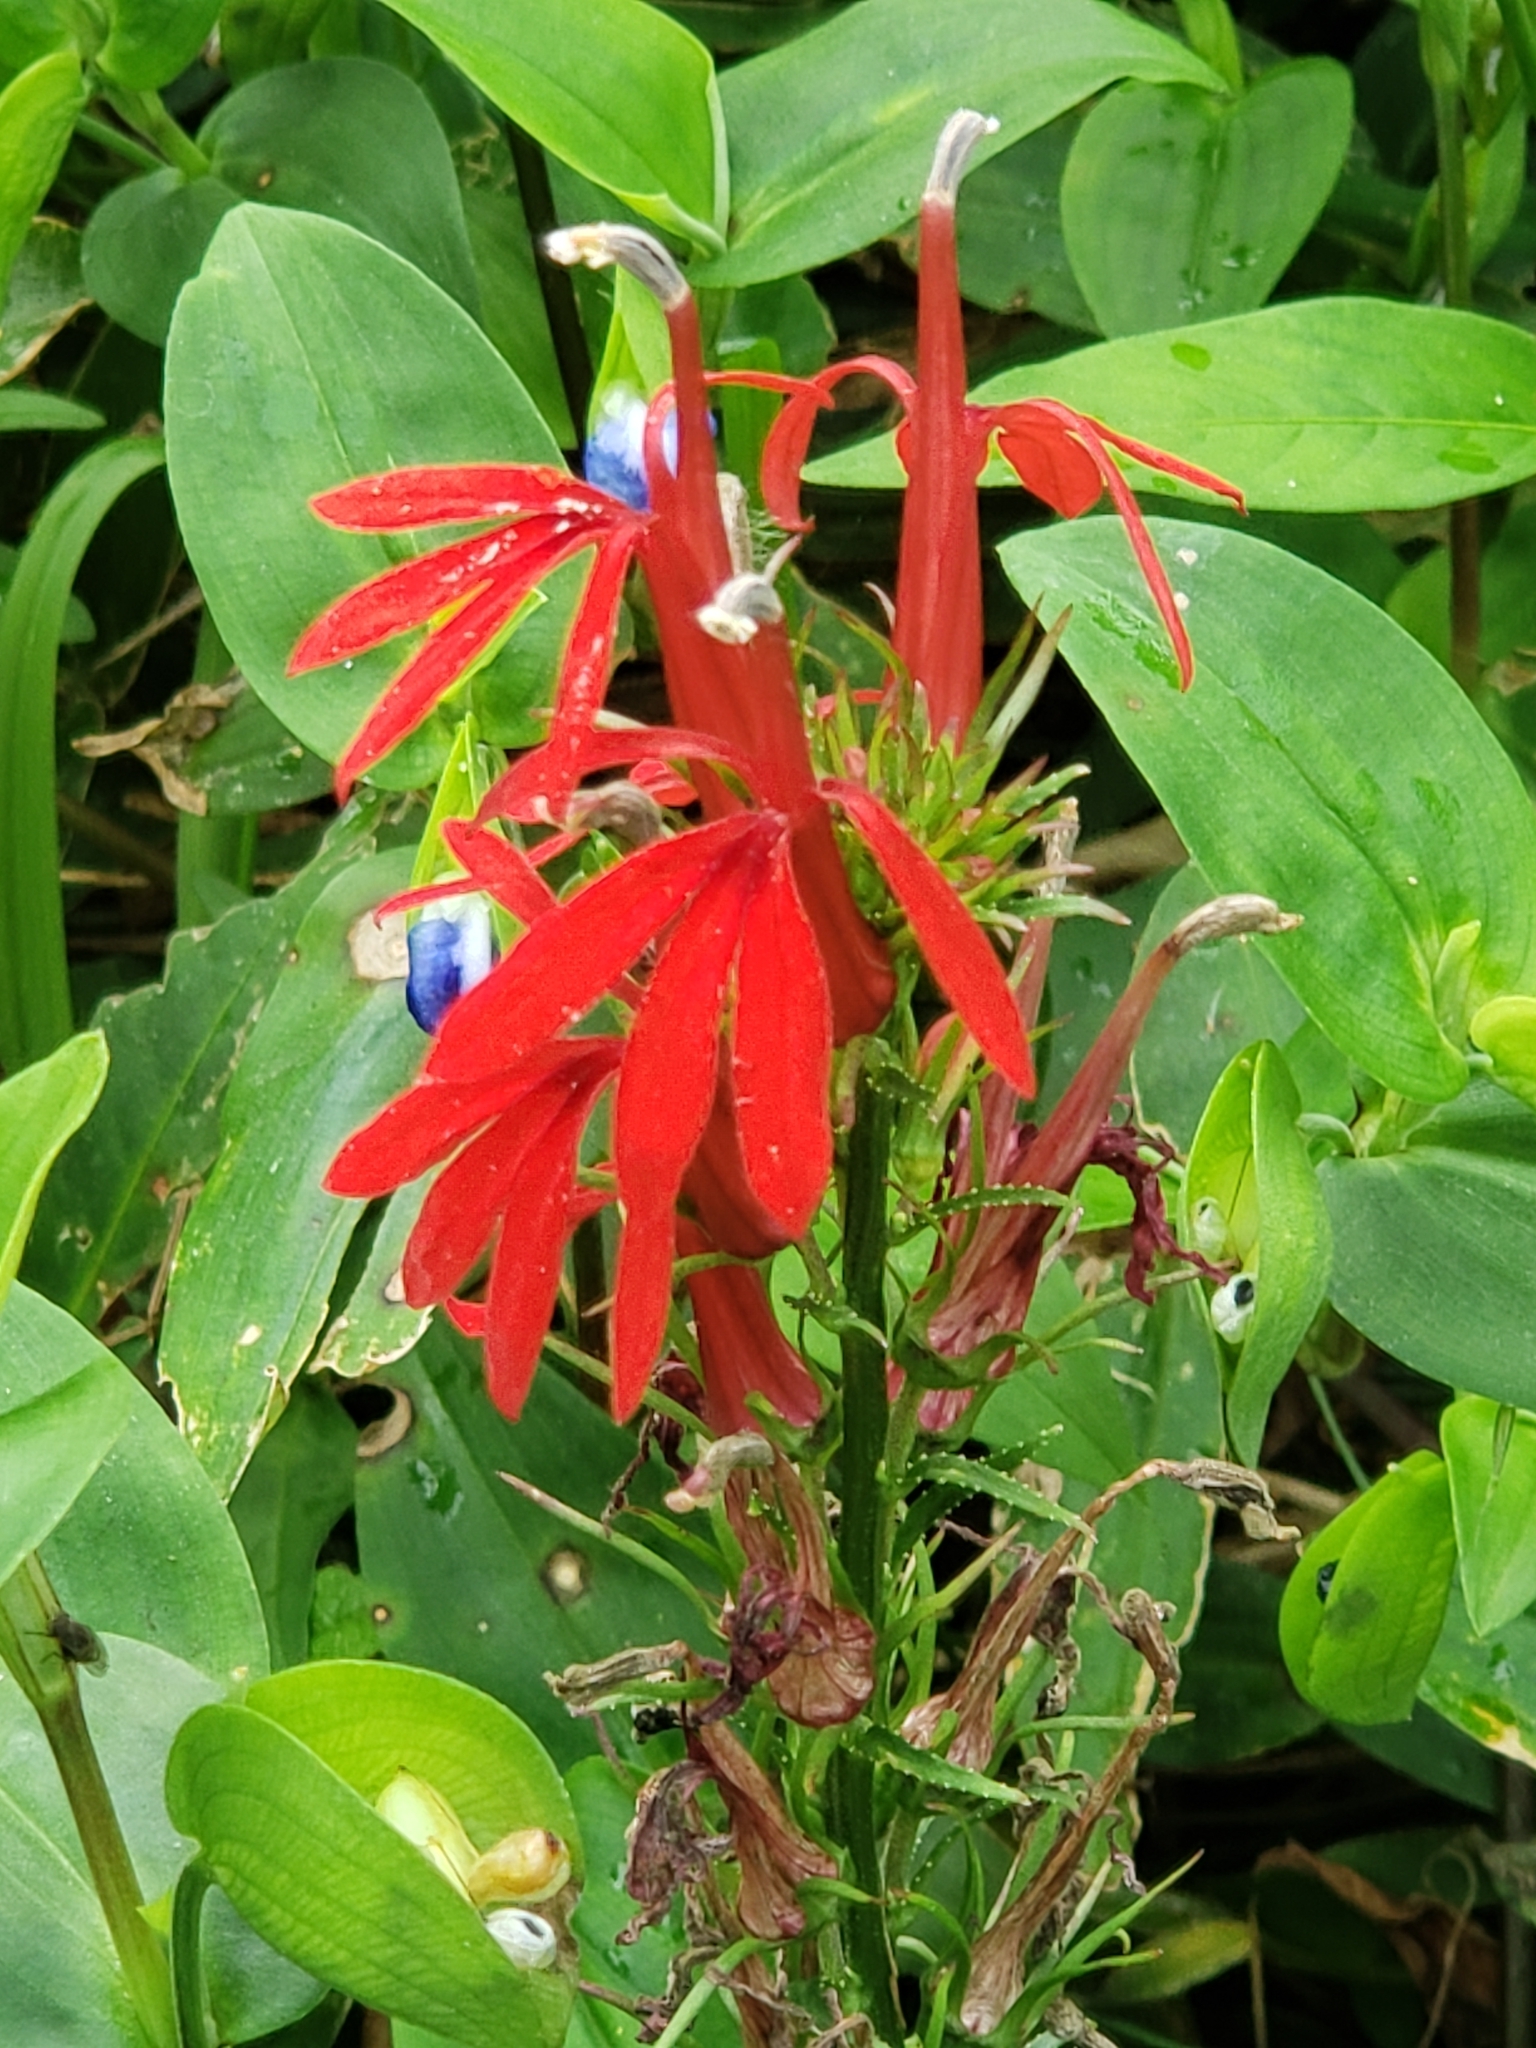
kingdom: Plantae
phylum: Tracheophyta
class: Magnoliopsida
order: Asterales
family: Campanulaceae
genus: Lobelia
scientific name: Lobelia cardinalis
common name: Cardinal flower
